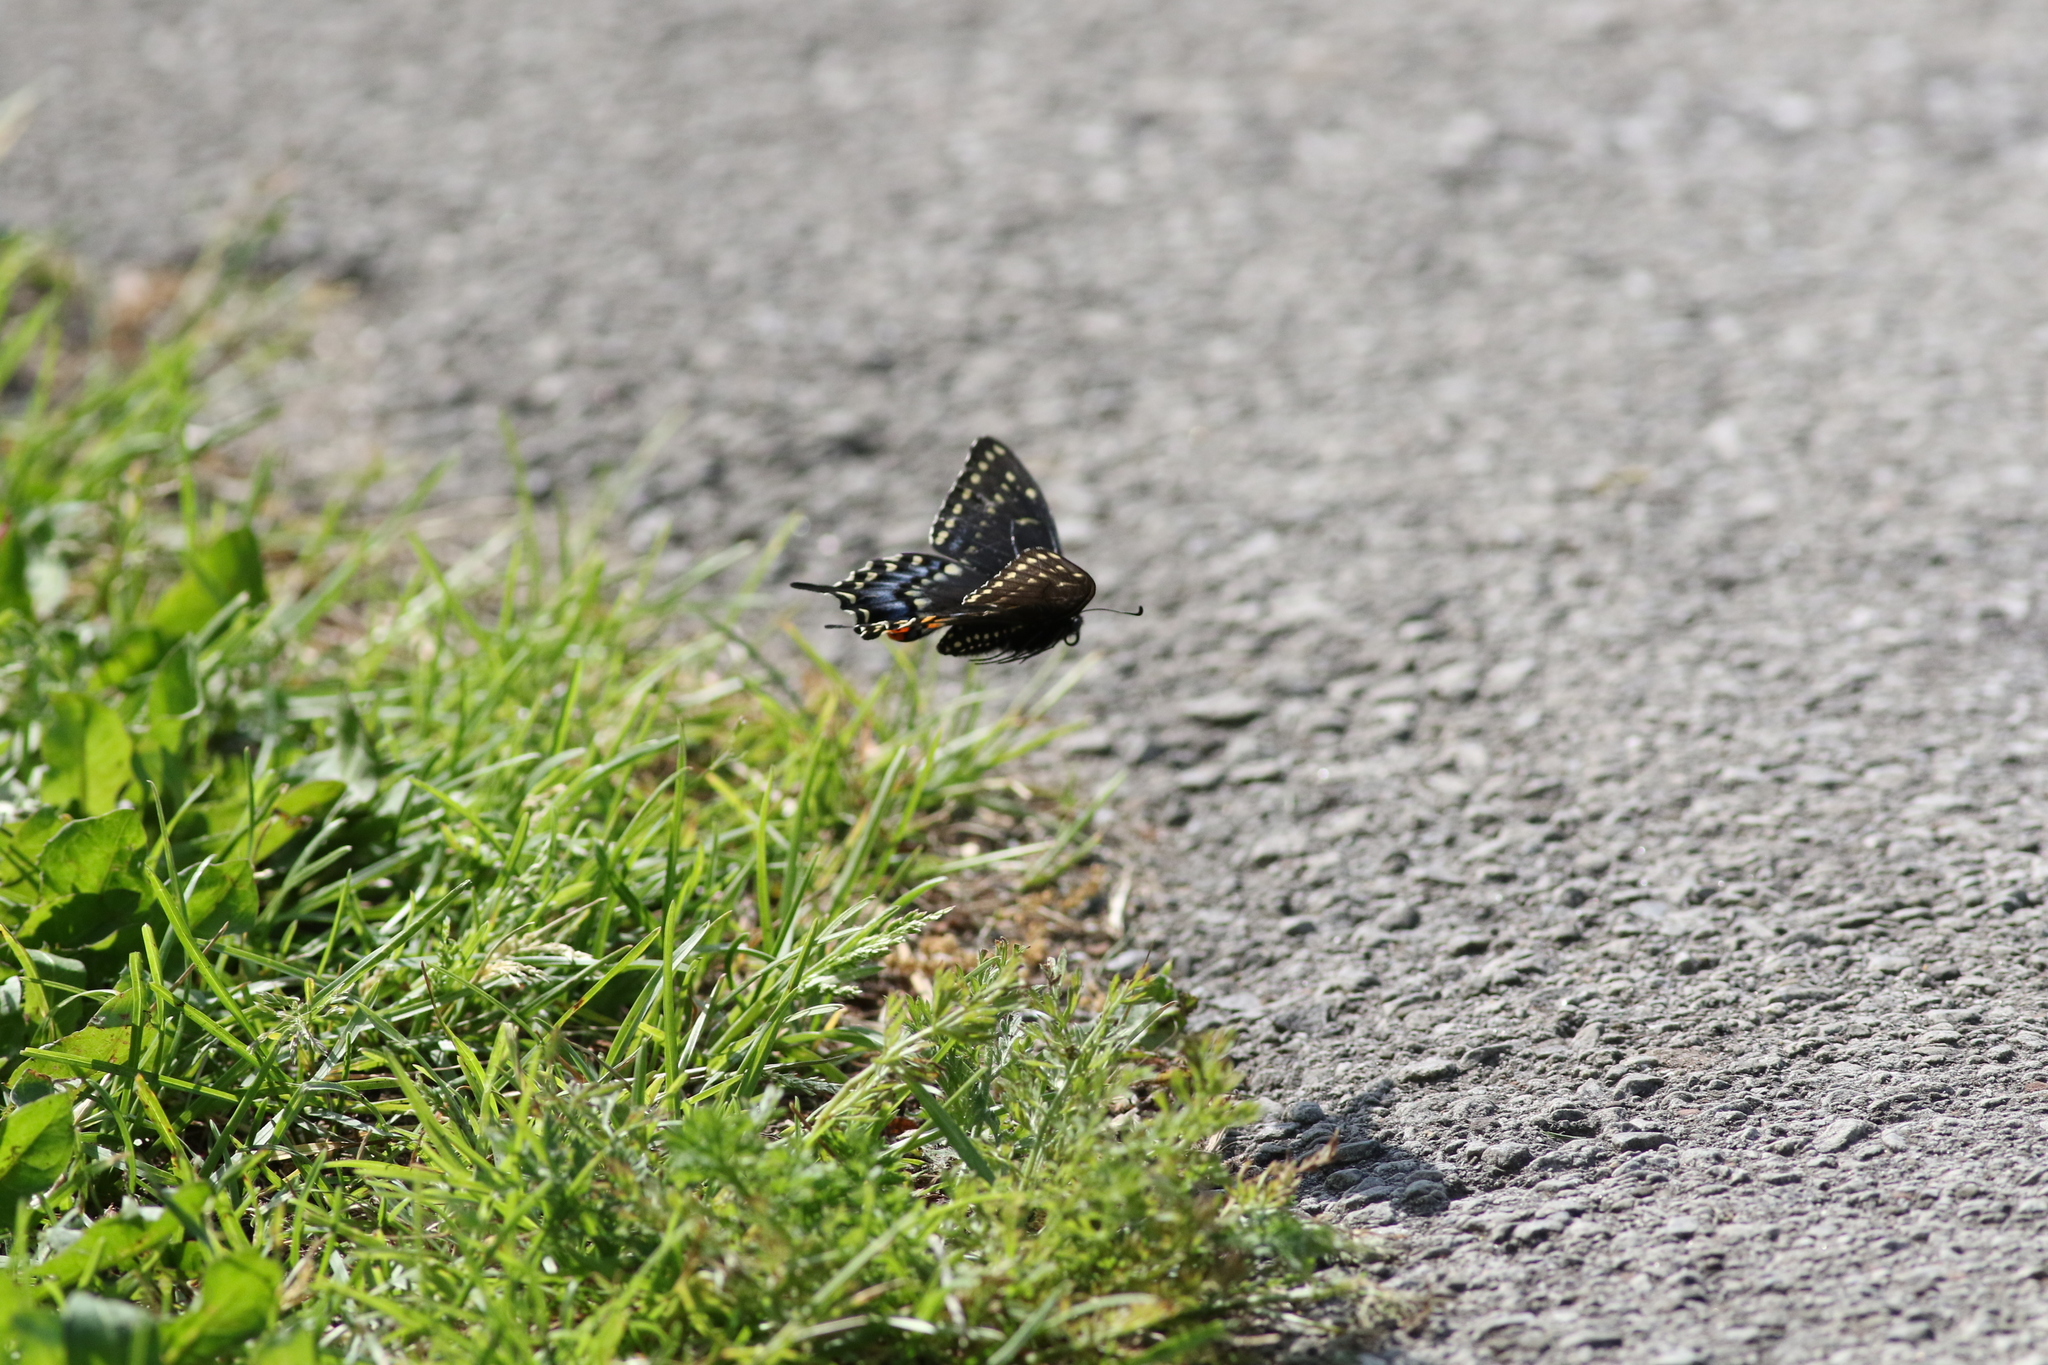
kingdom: Animalia
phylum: Arthropoda
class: Insecta
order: Lepidoptera
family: Papilionidae
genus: Papilio
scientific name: Papilio polyxenes
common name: Black swallowtail
